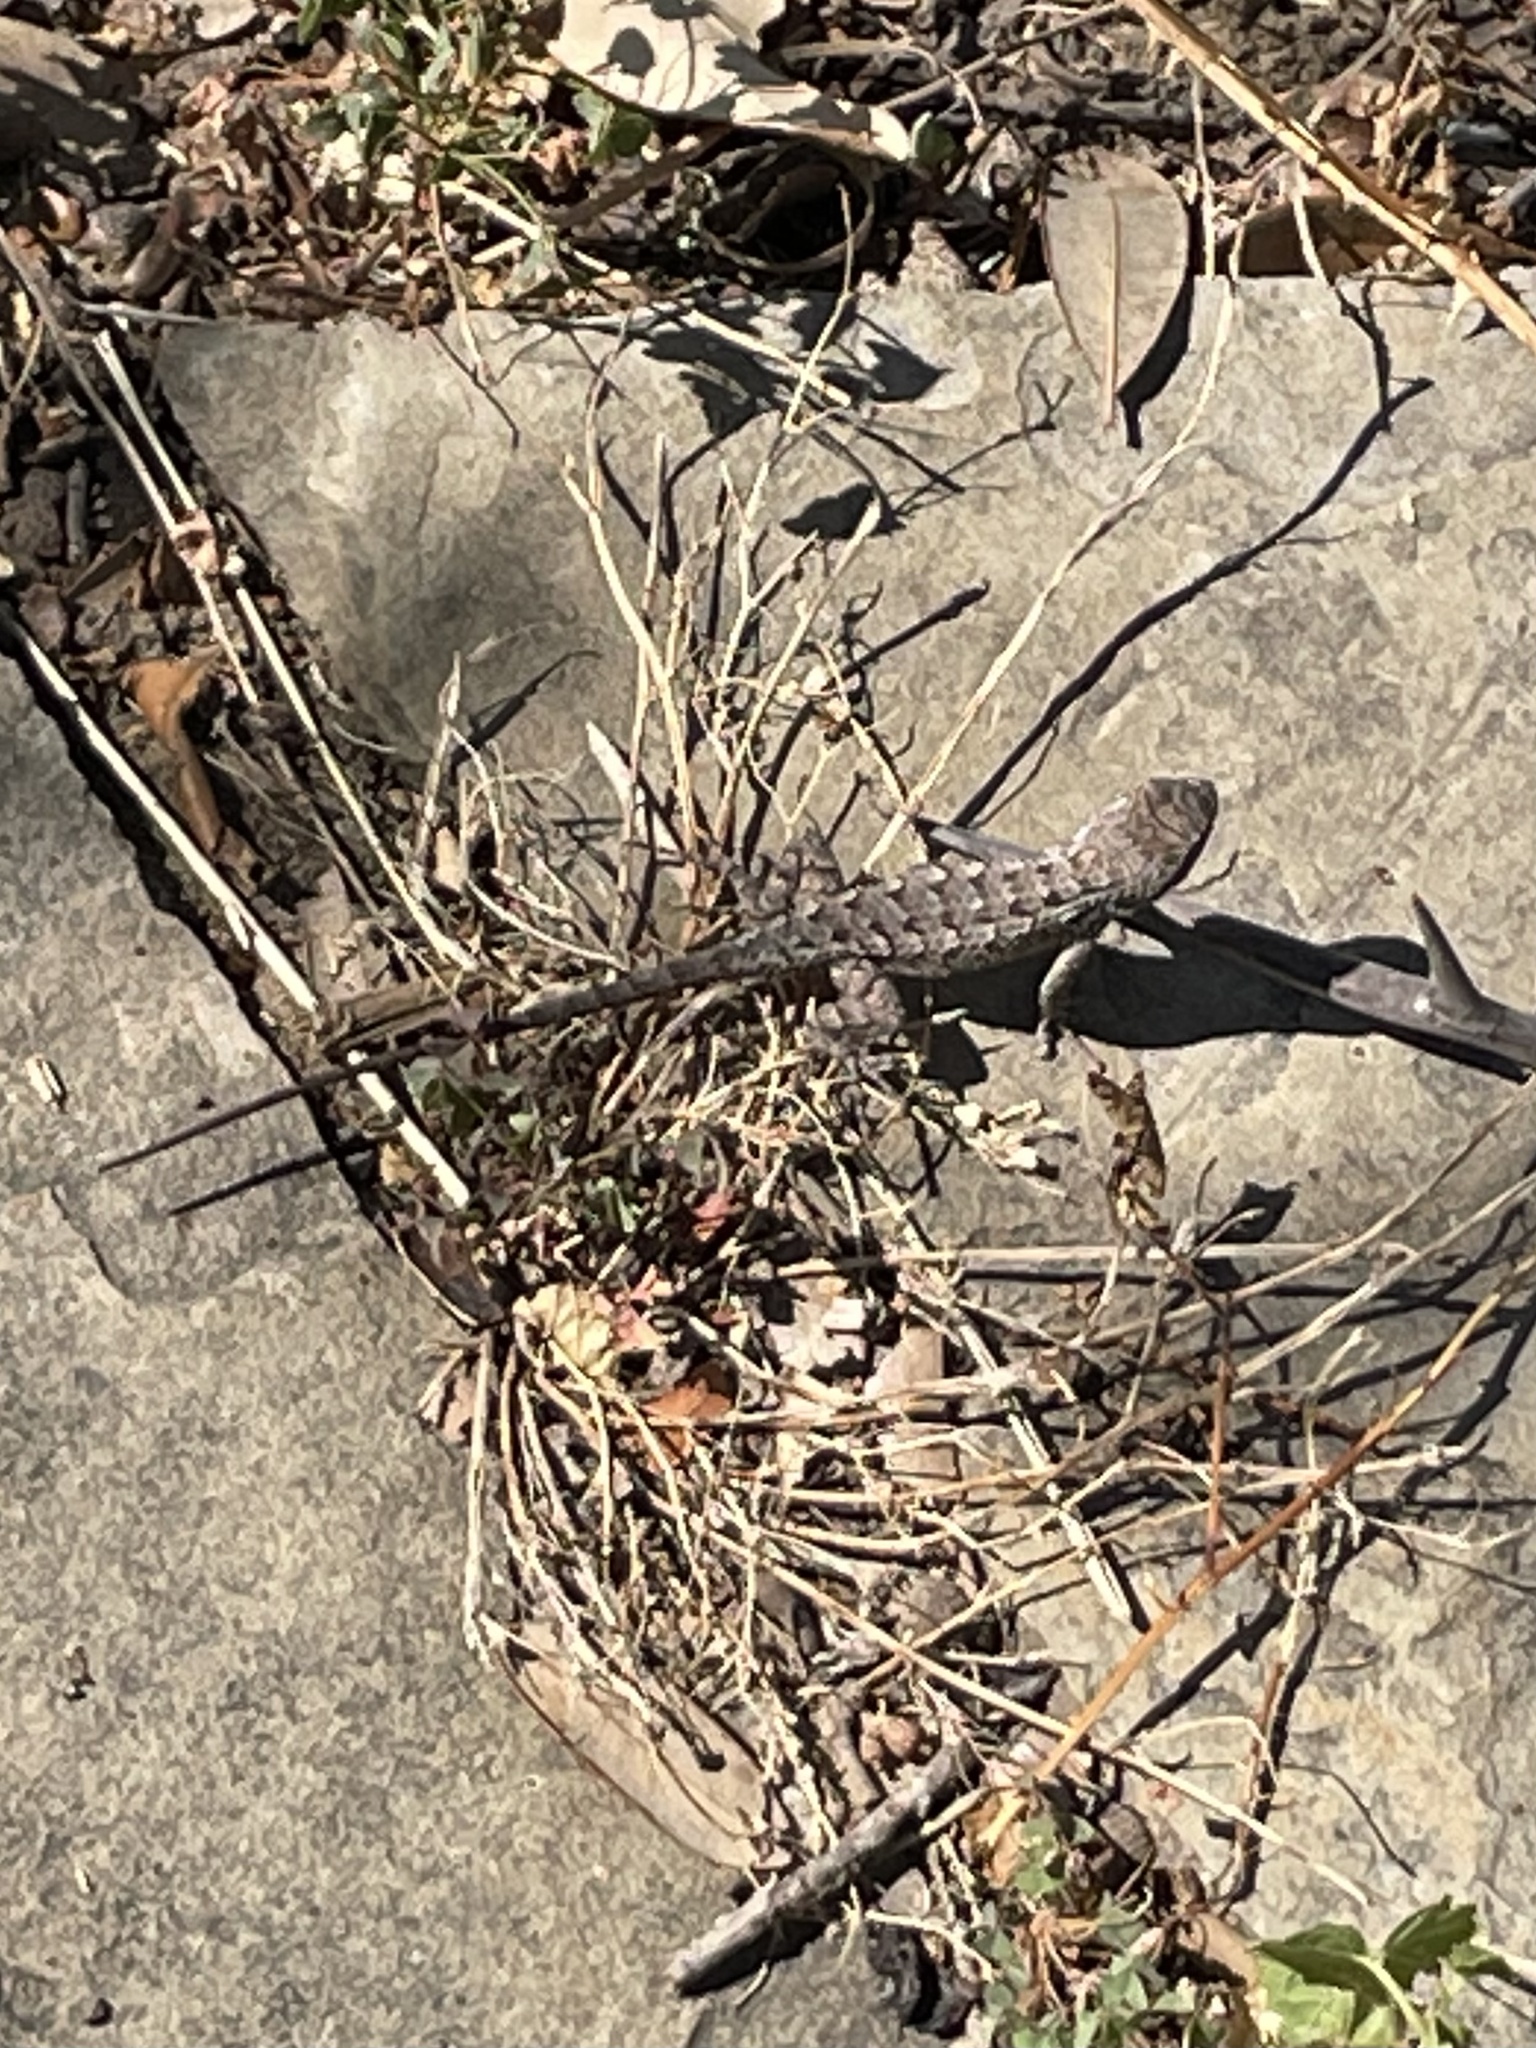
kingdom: Animalia
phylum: Chordata
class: Squamata
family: Phrynosomatidae
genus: Sceloporus
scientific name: Sceloporus olivaceus
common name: Texas spiny lizard
